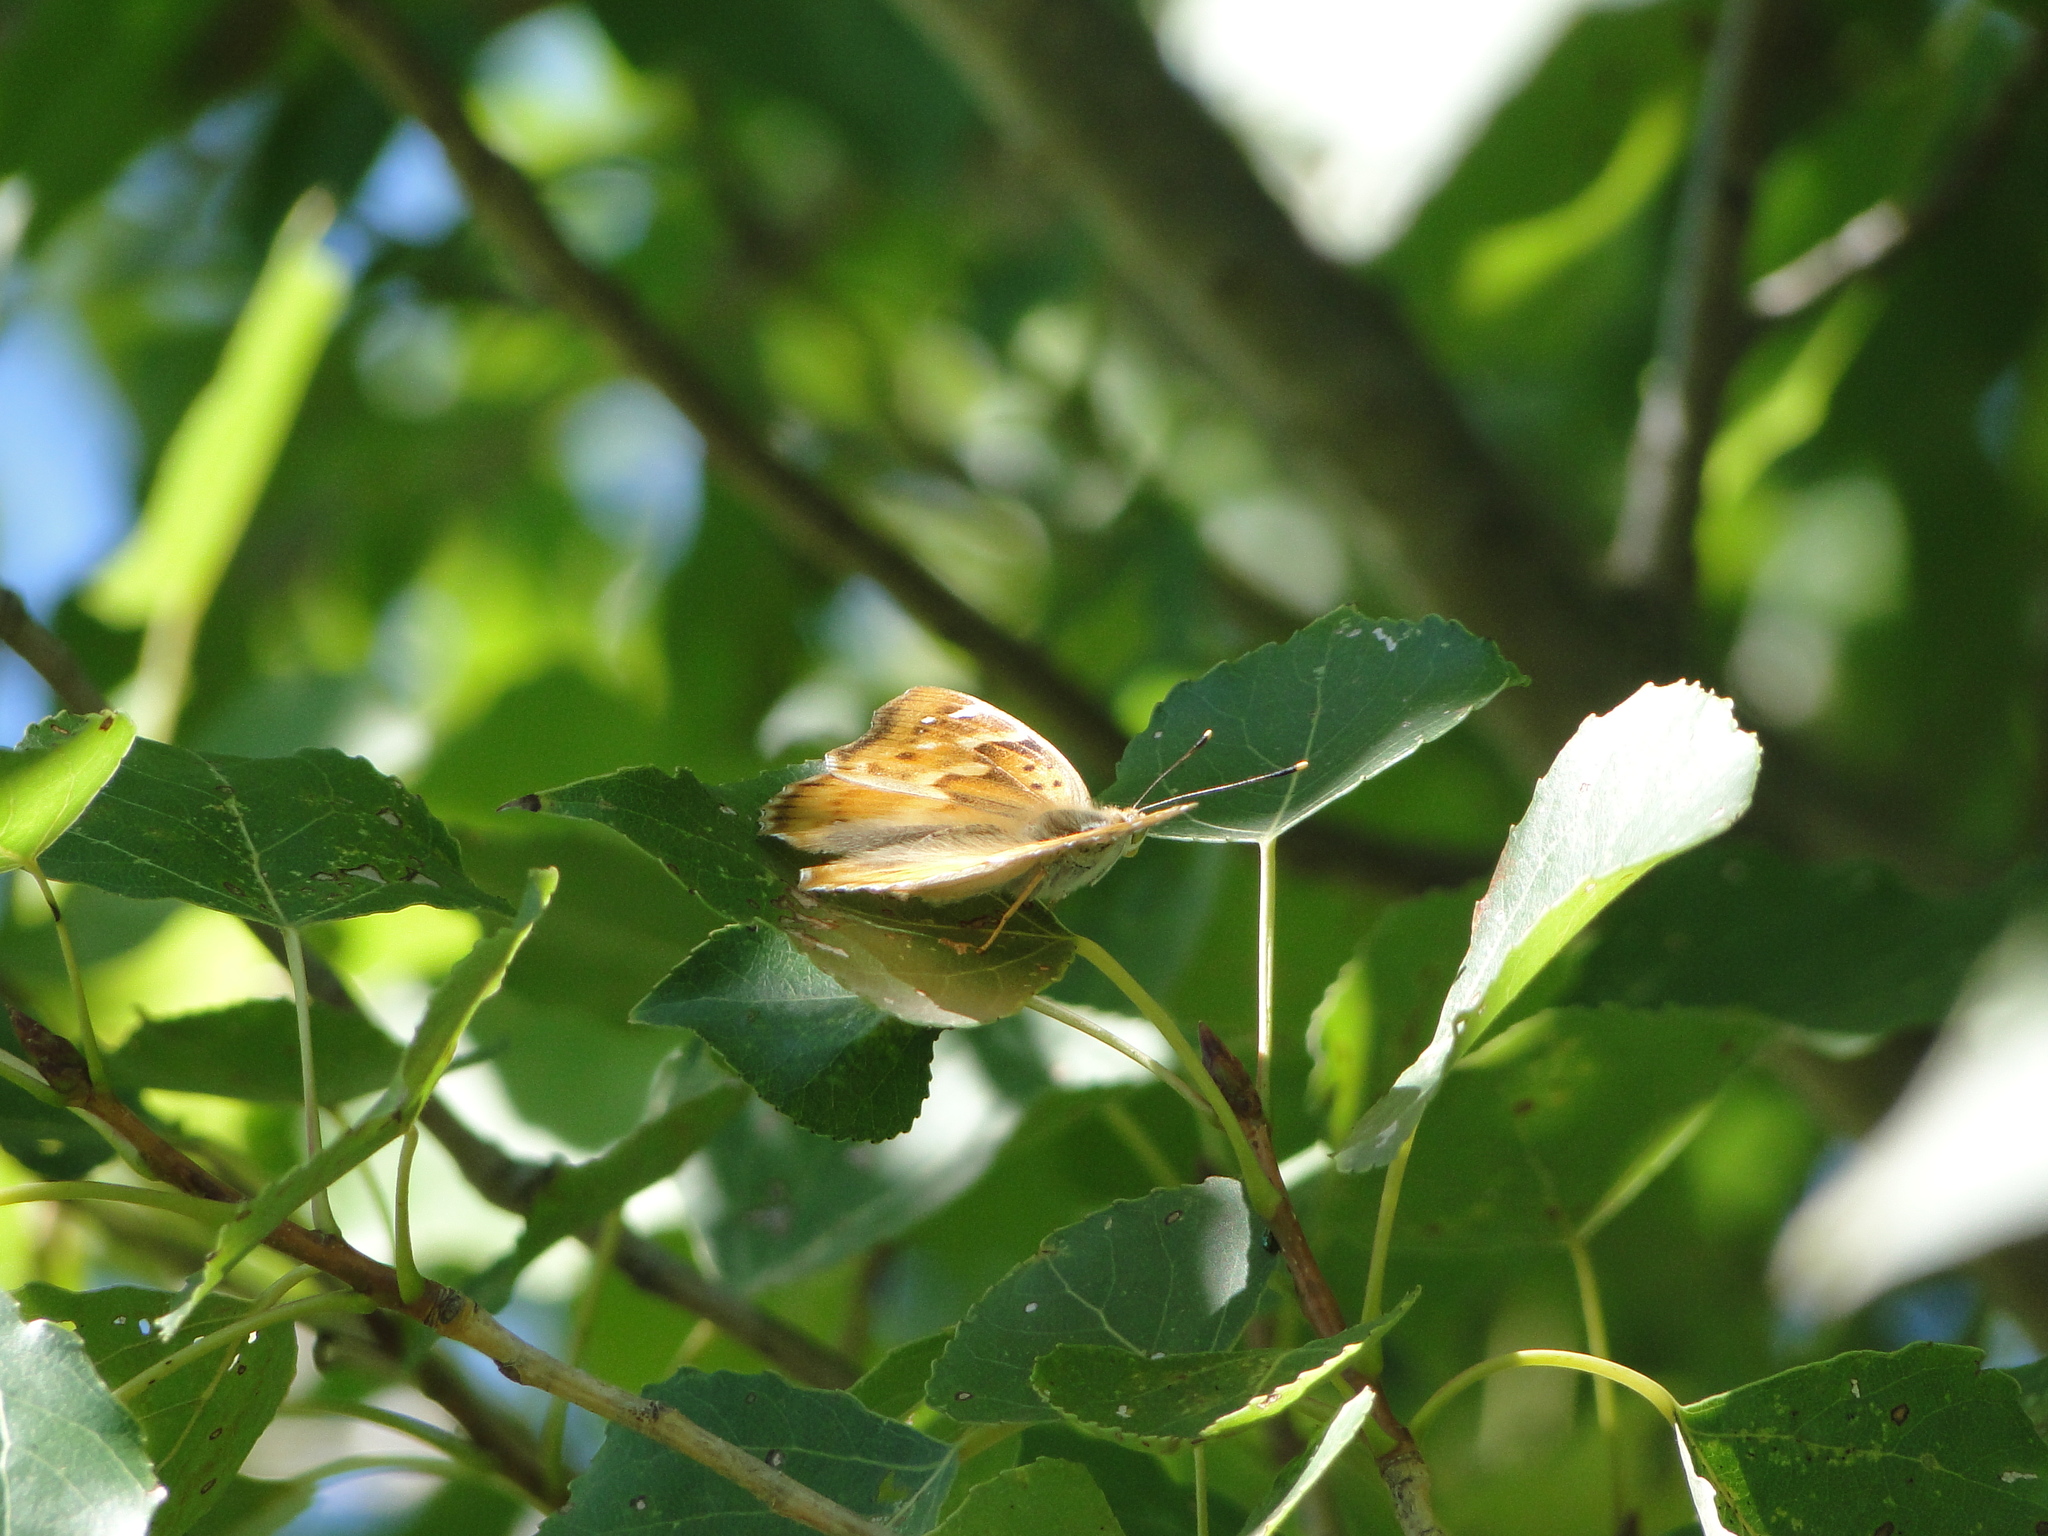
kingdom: Animalia
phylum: Arthropoda
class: Insecta
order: Lepidoptera
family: Nymphalidae
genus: Apatura
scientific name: Apatura ilia
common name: Lesser purple emperor
